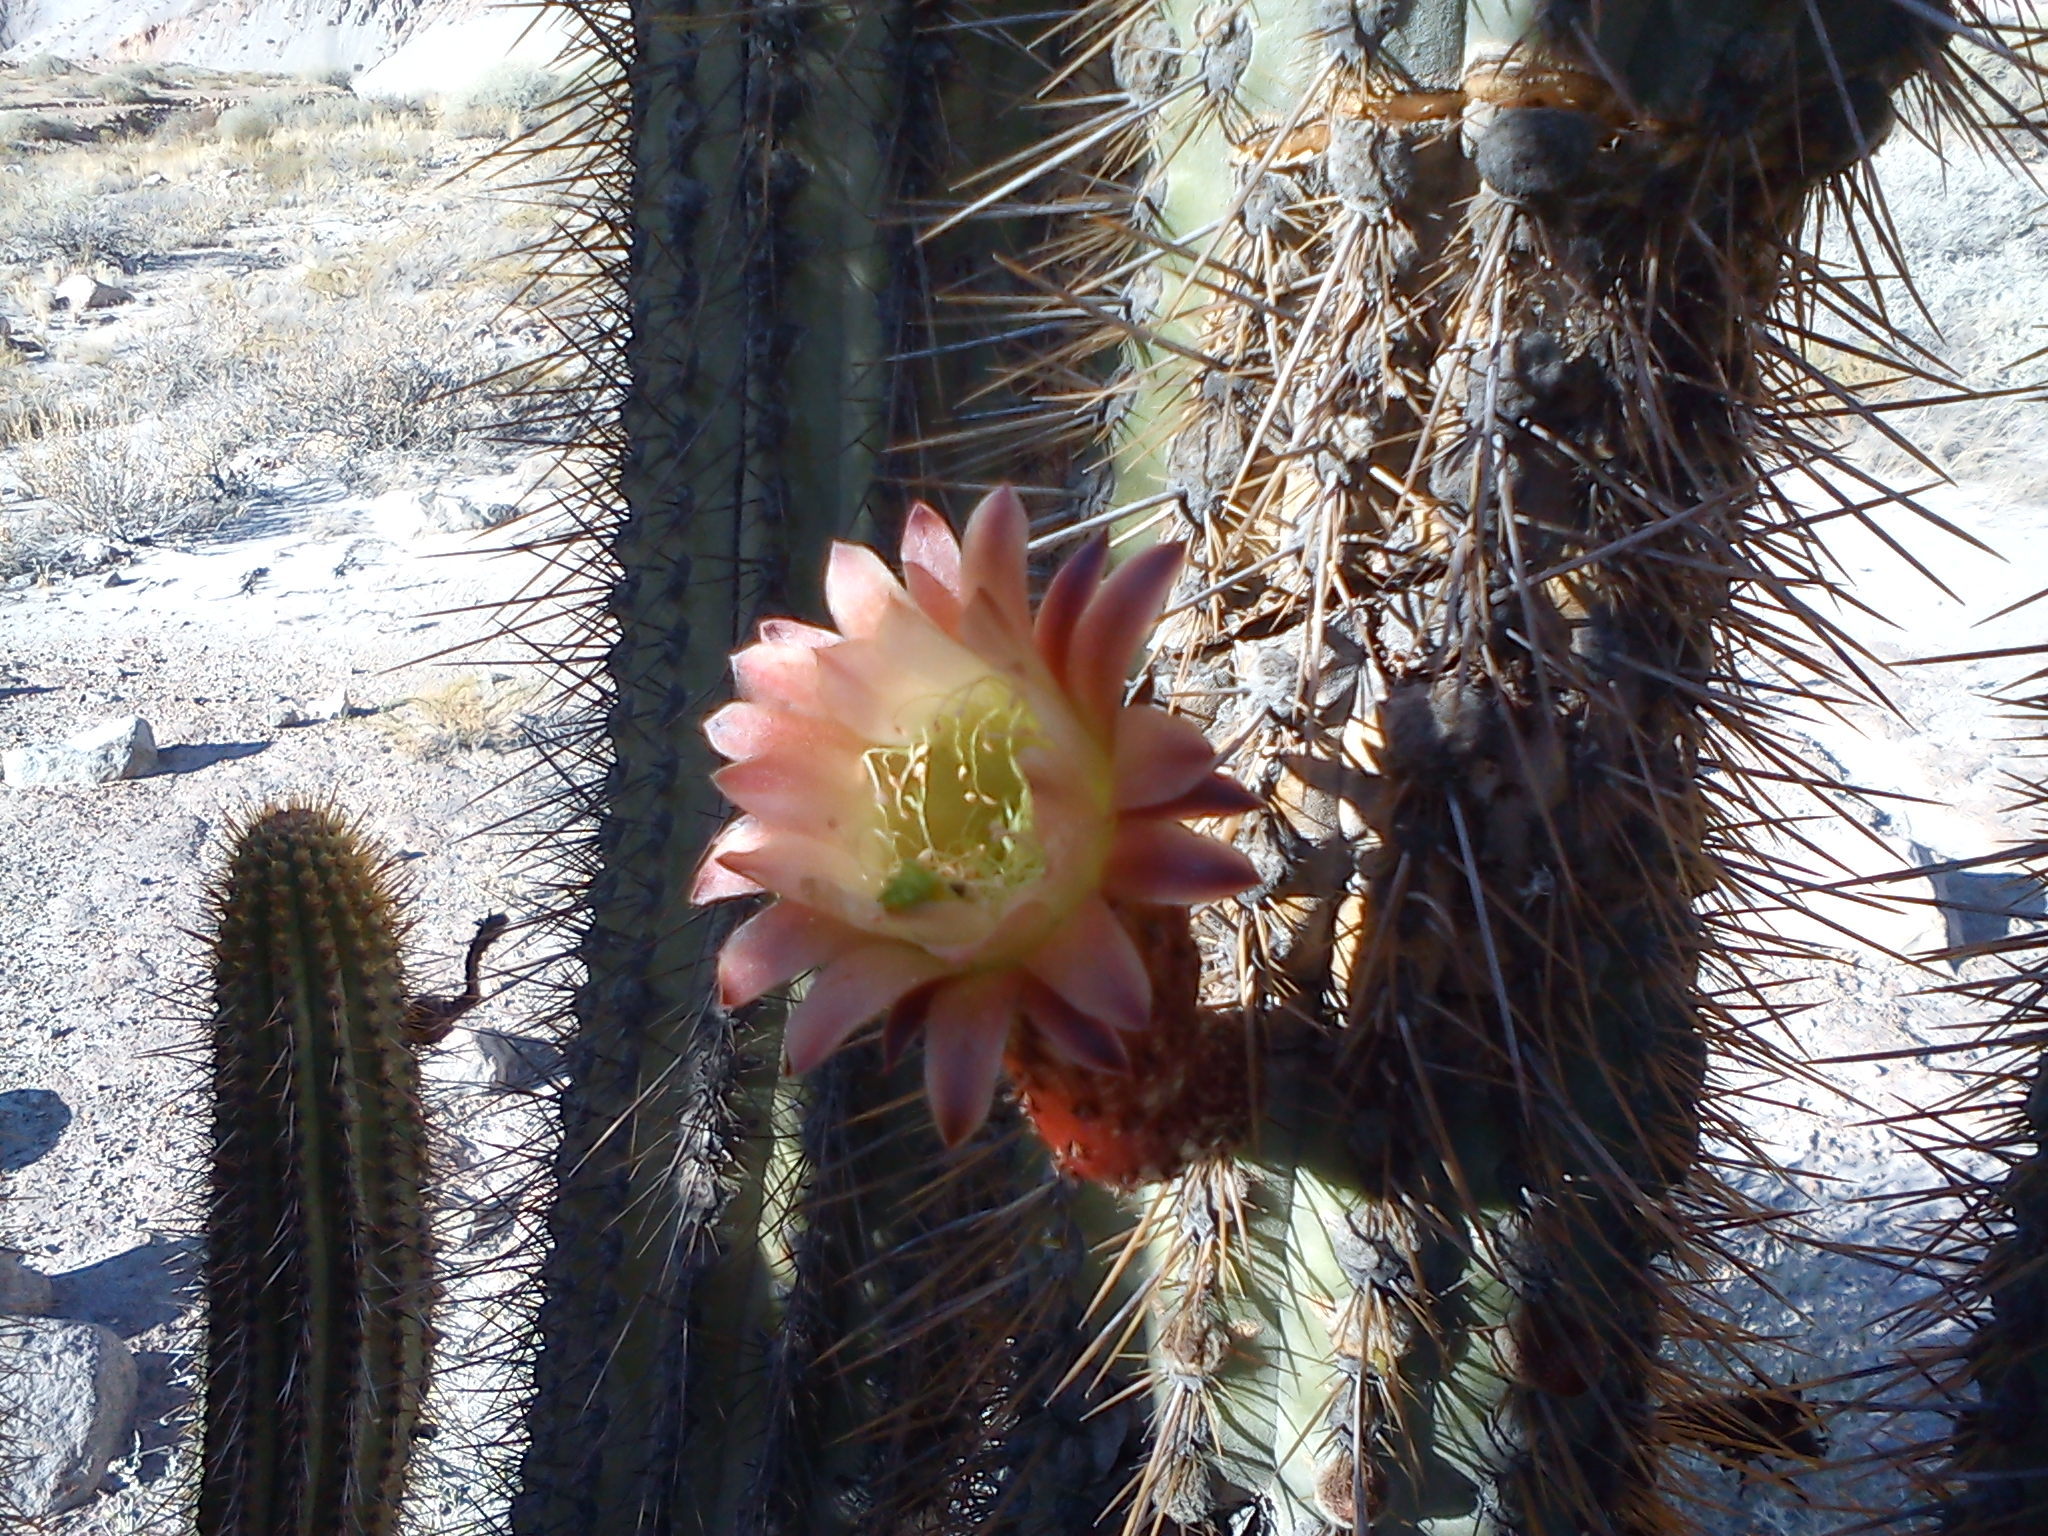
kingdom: Plantae
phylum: Tracheophyta
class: Magnoliopsida
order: Caryophyllales
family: Cactaceae
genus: Weberbauerocereus
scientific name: Weberbauerocereus weberbaueri
